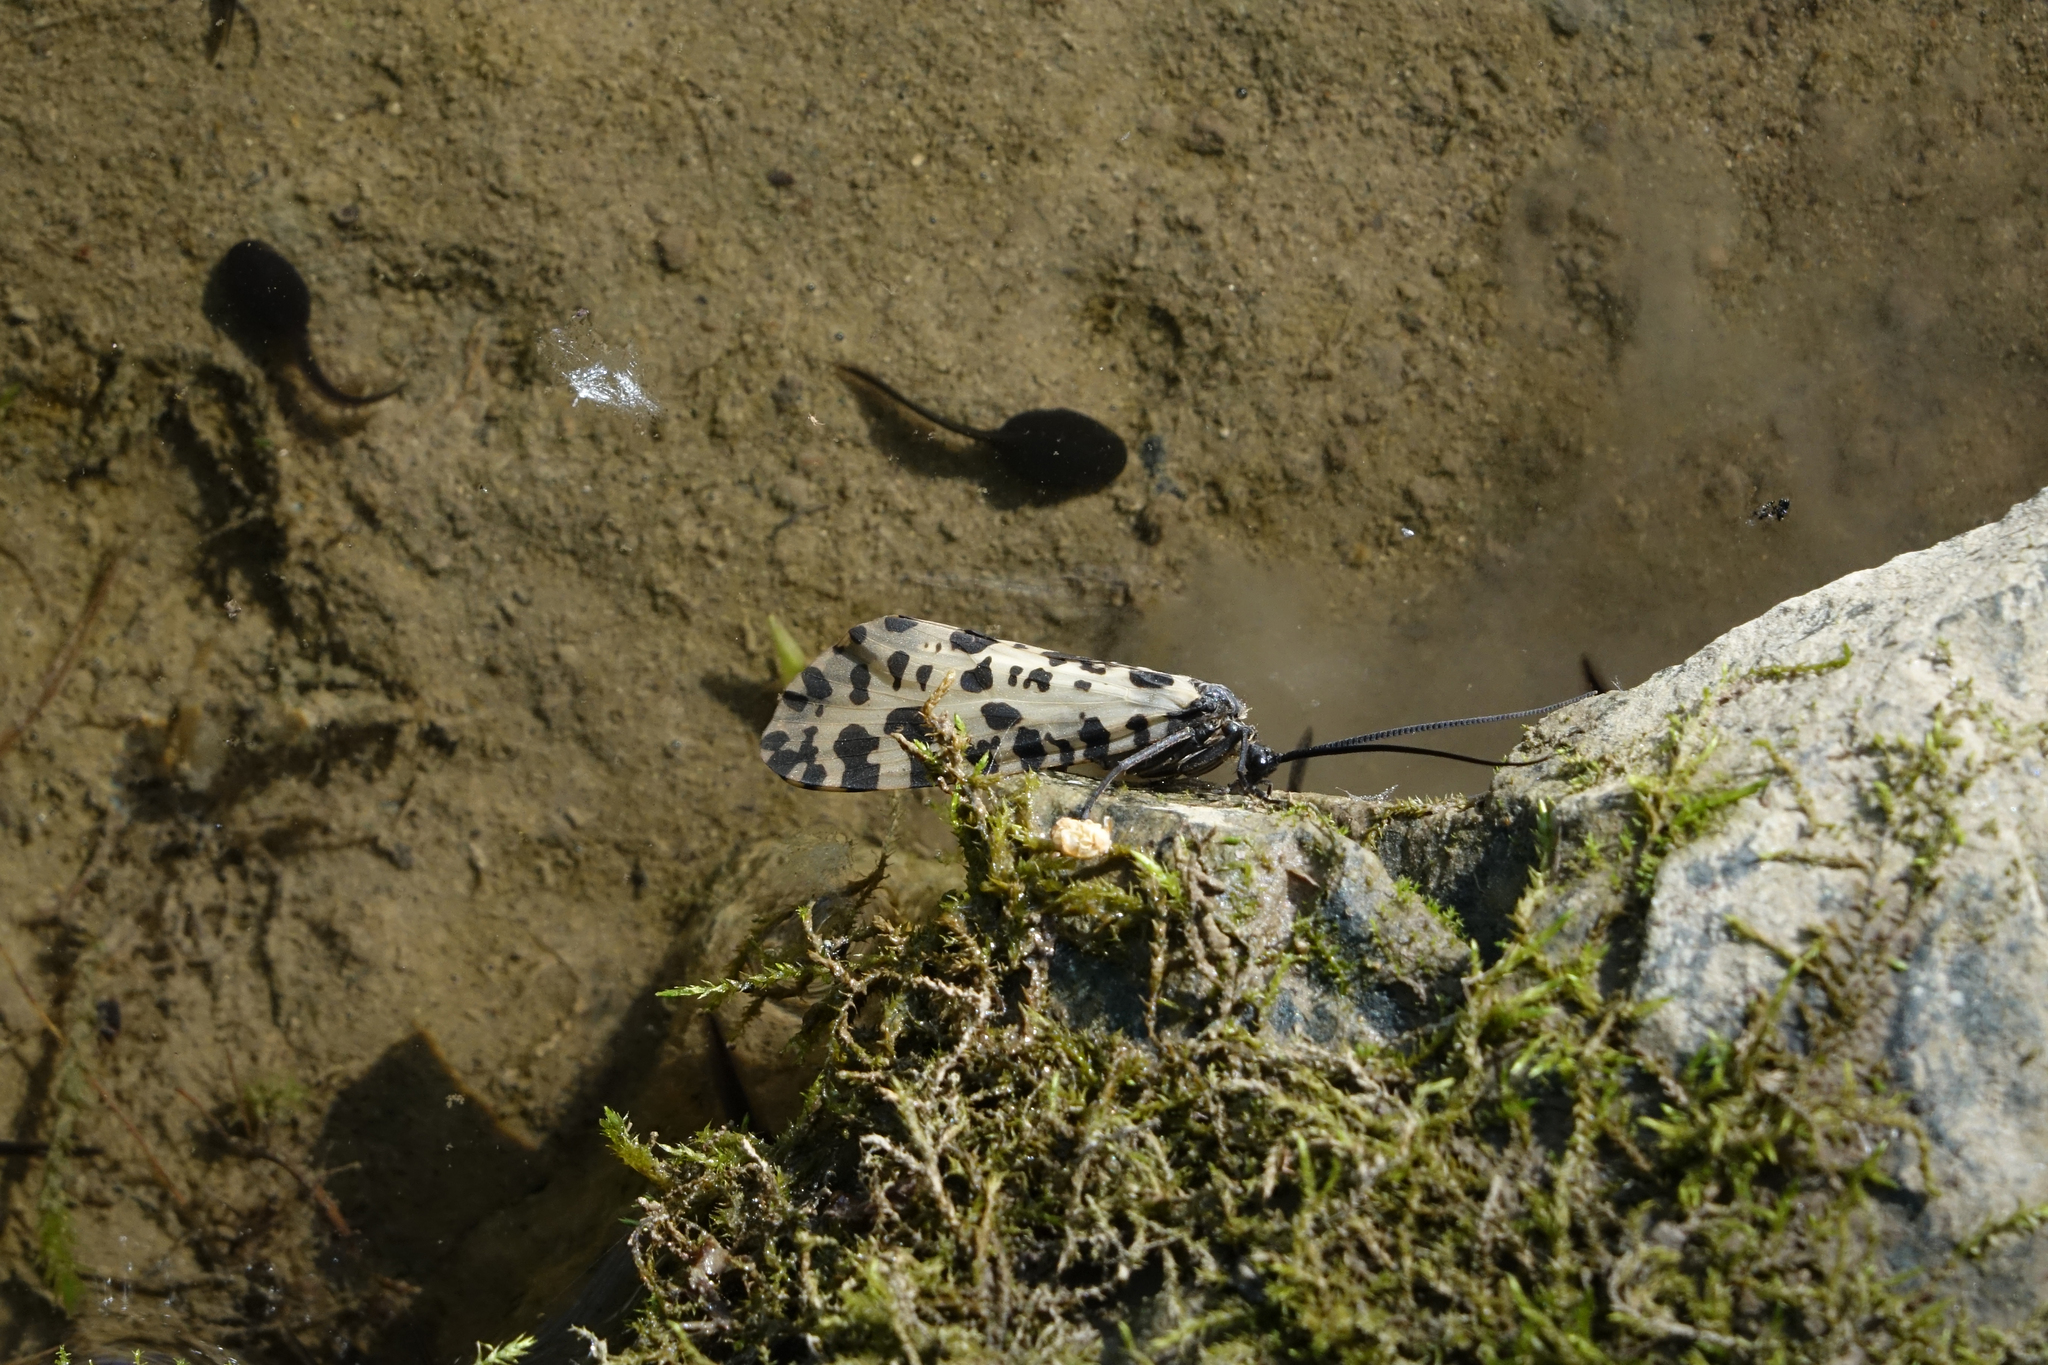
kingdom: Animalia
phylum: Arthropoda
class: Insecta
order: Trichoptera
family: Phryganeidae
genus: Semblis
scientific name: Semblis phalaenoides
